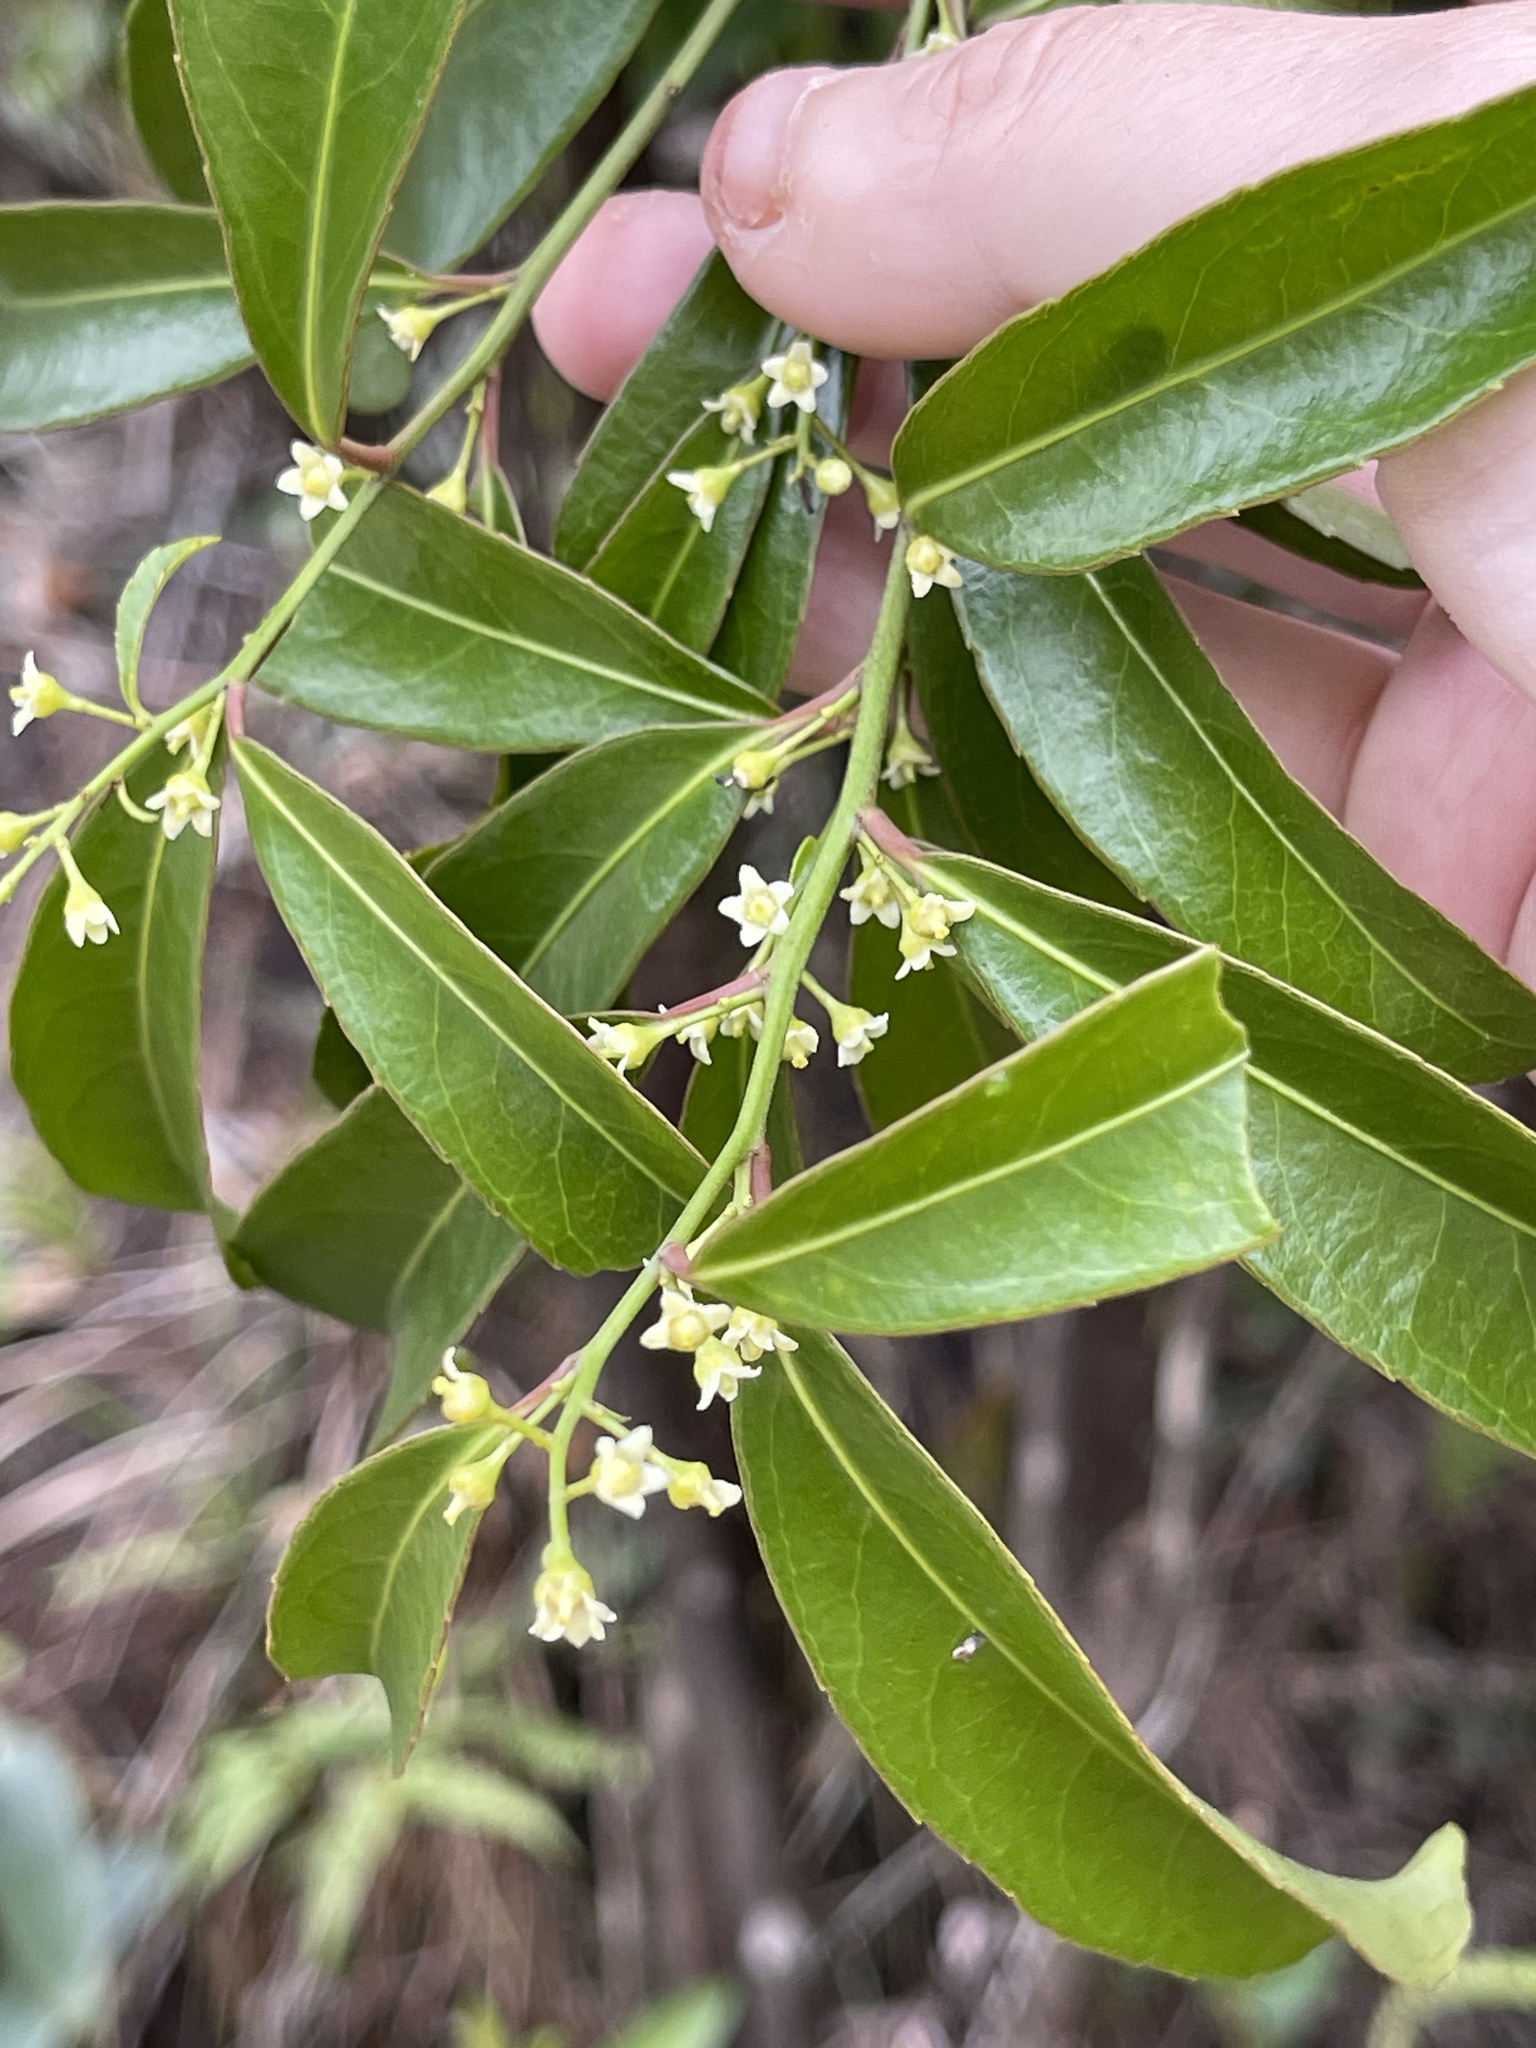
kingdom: Plantae
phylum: Tracheophyta
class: Magnoliopsida
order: Celastrales
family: Celastraceae
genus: Celastrus
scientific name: Celastrus hindsii
